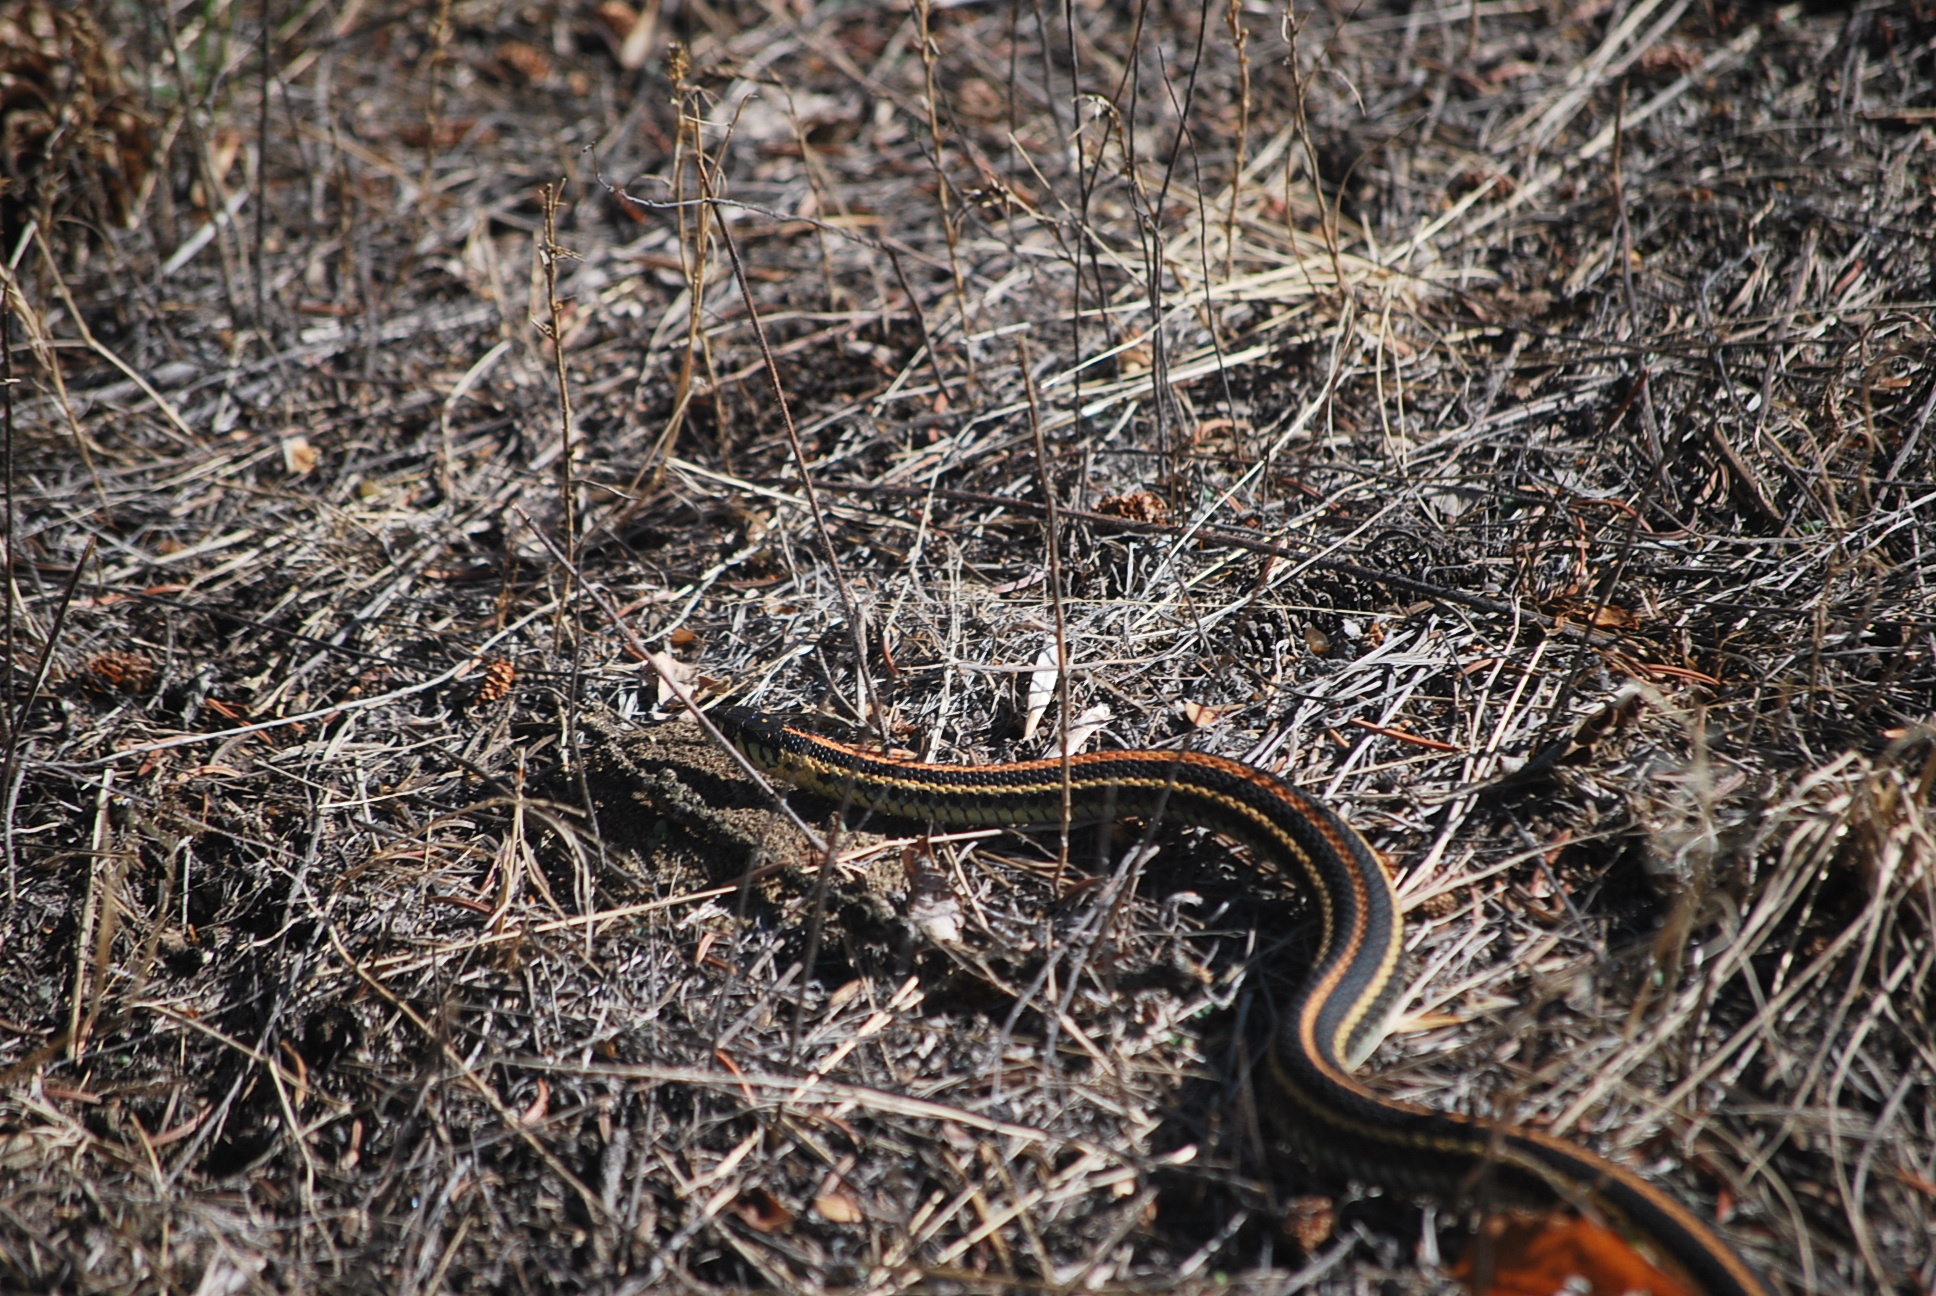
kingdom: Animalia
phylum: Chordata
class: Squamata
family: Colubridae
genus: Thamnophis
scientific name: Thamnophis radix
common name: Plains garter snake
